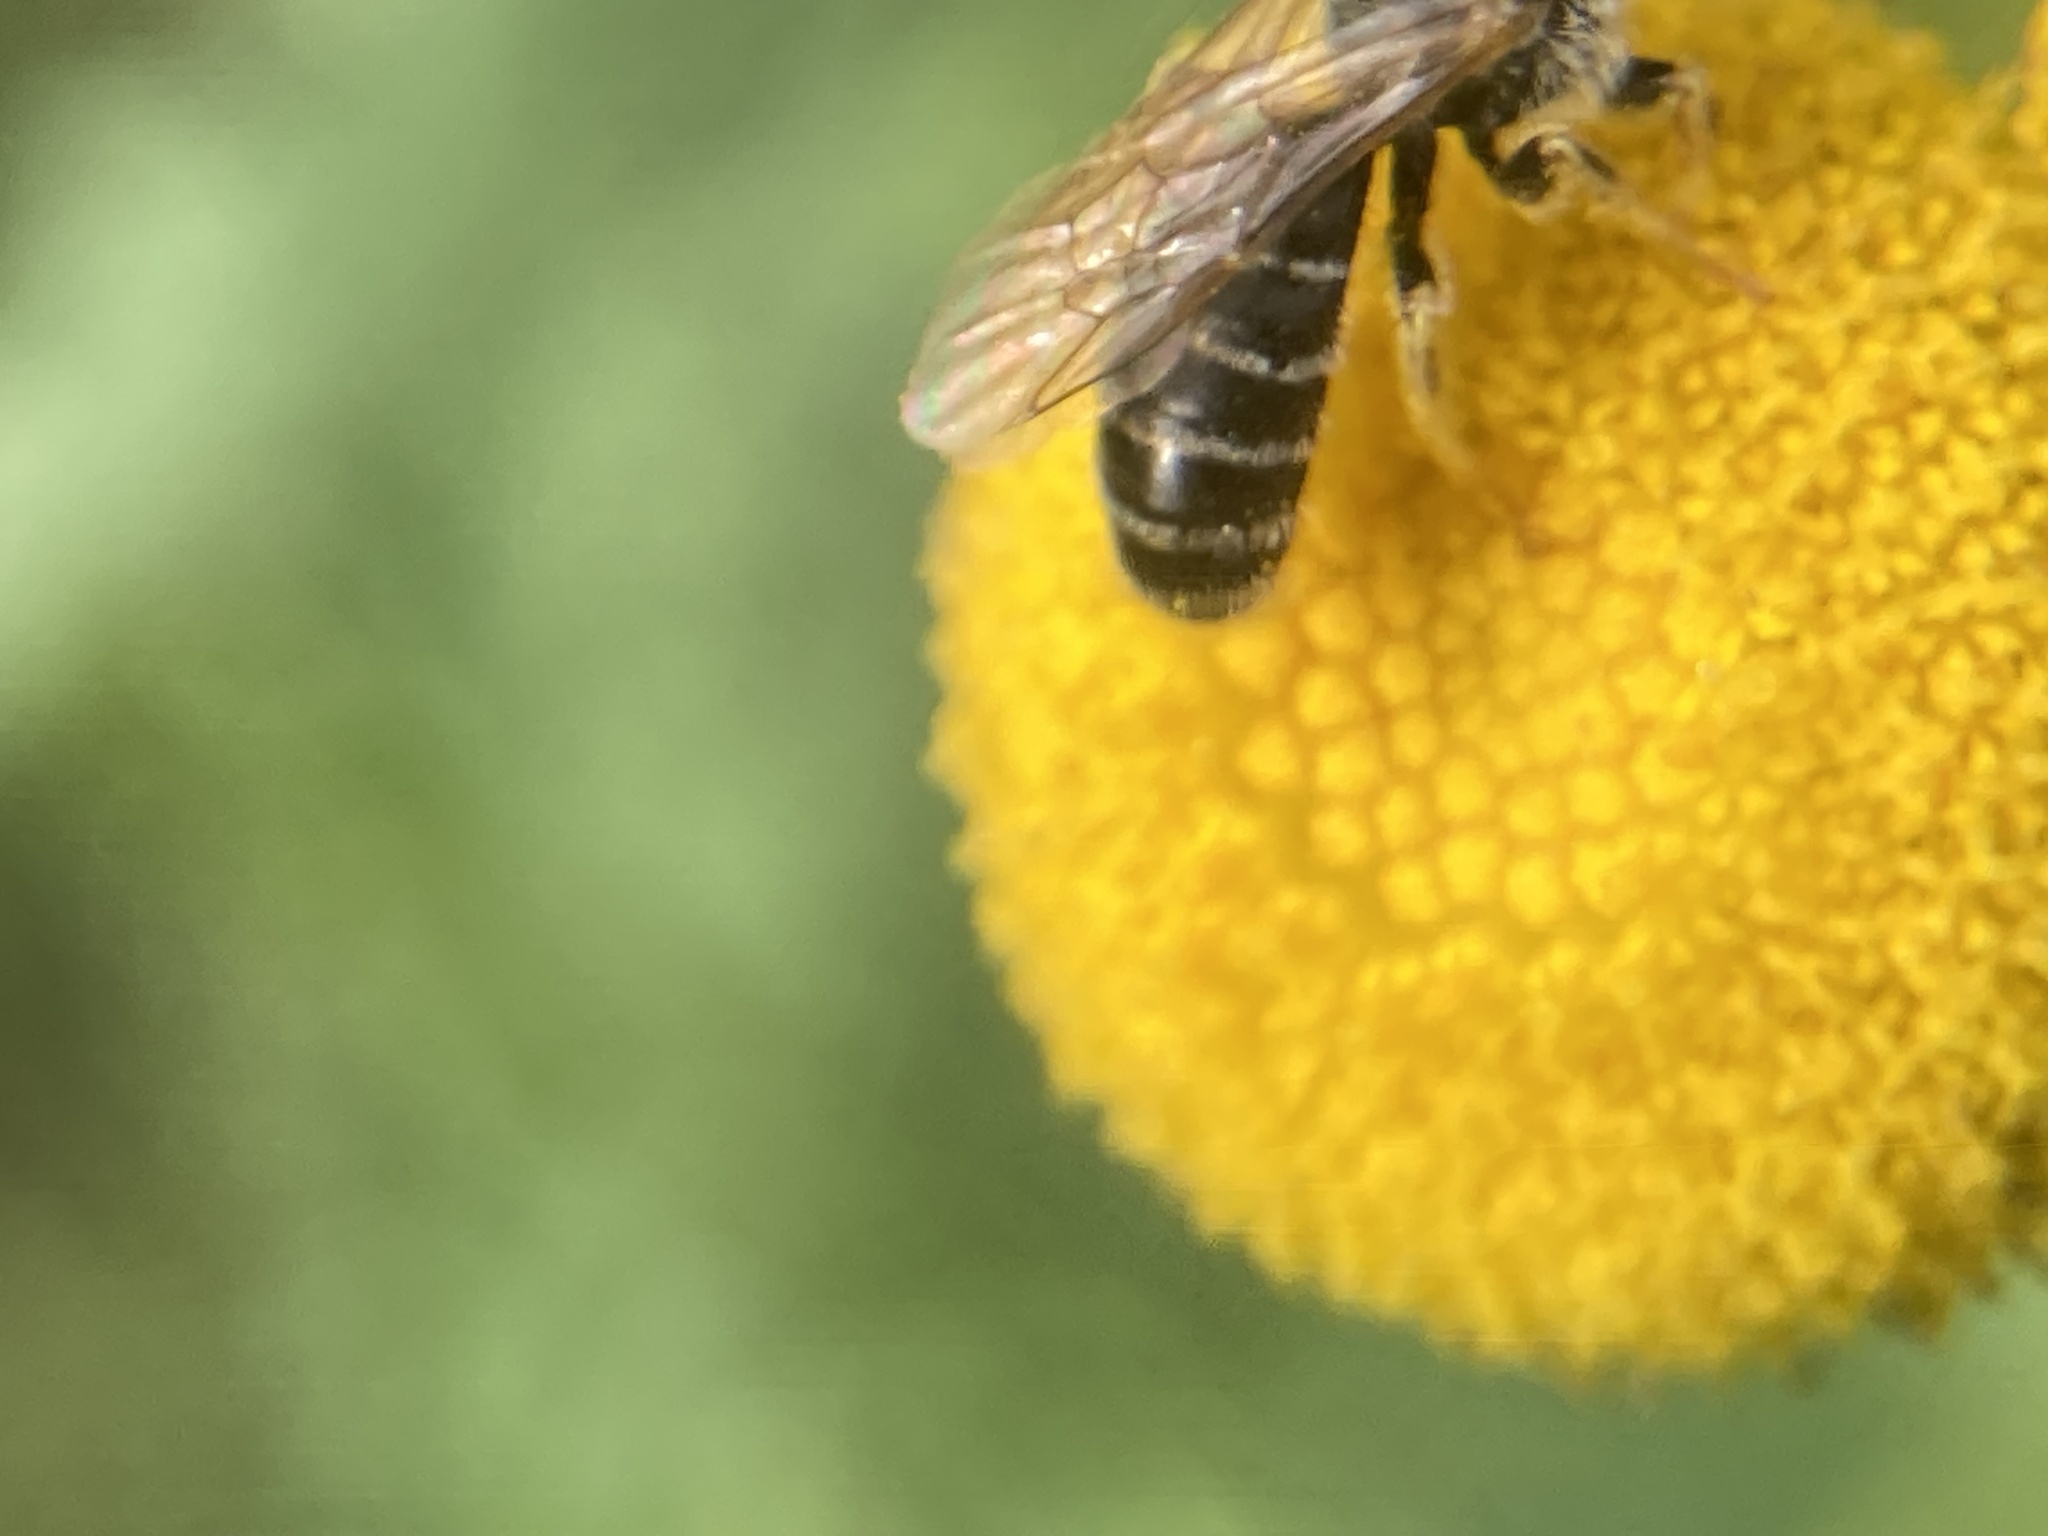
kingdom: Animalia
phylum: Arthropoda
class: Insecta
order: Hymenoptera
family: Halictidae
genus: Halictus
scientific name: Halictus ligatus
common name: Ligated furrow bee
